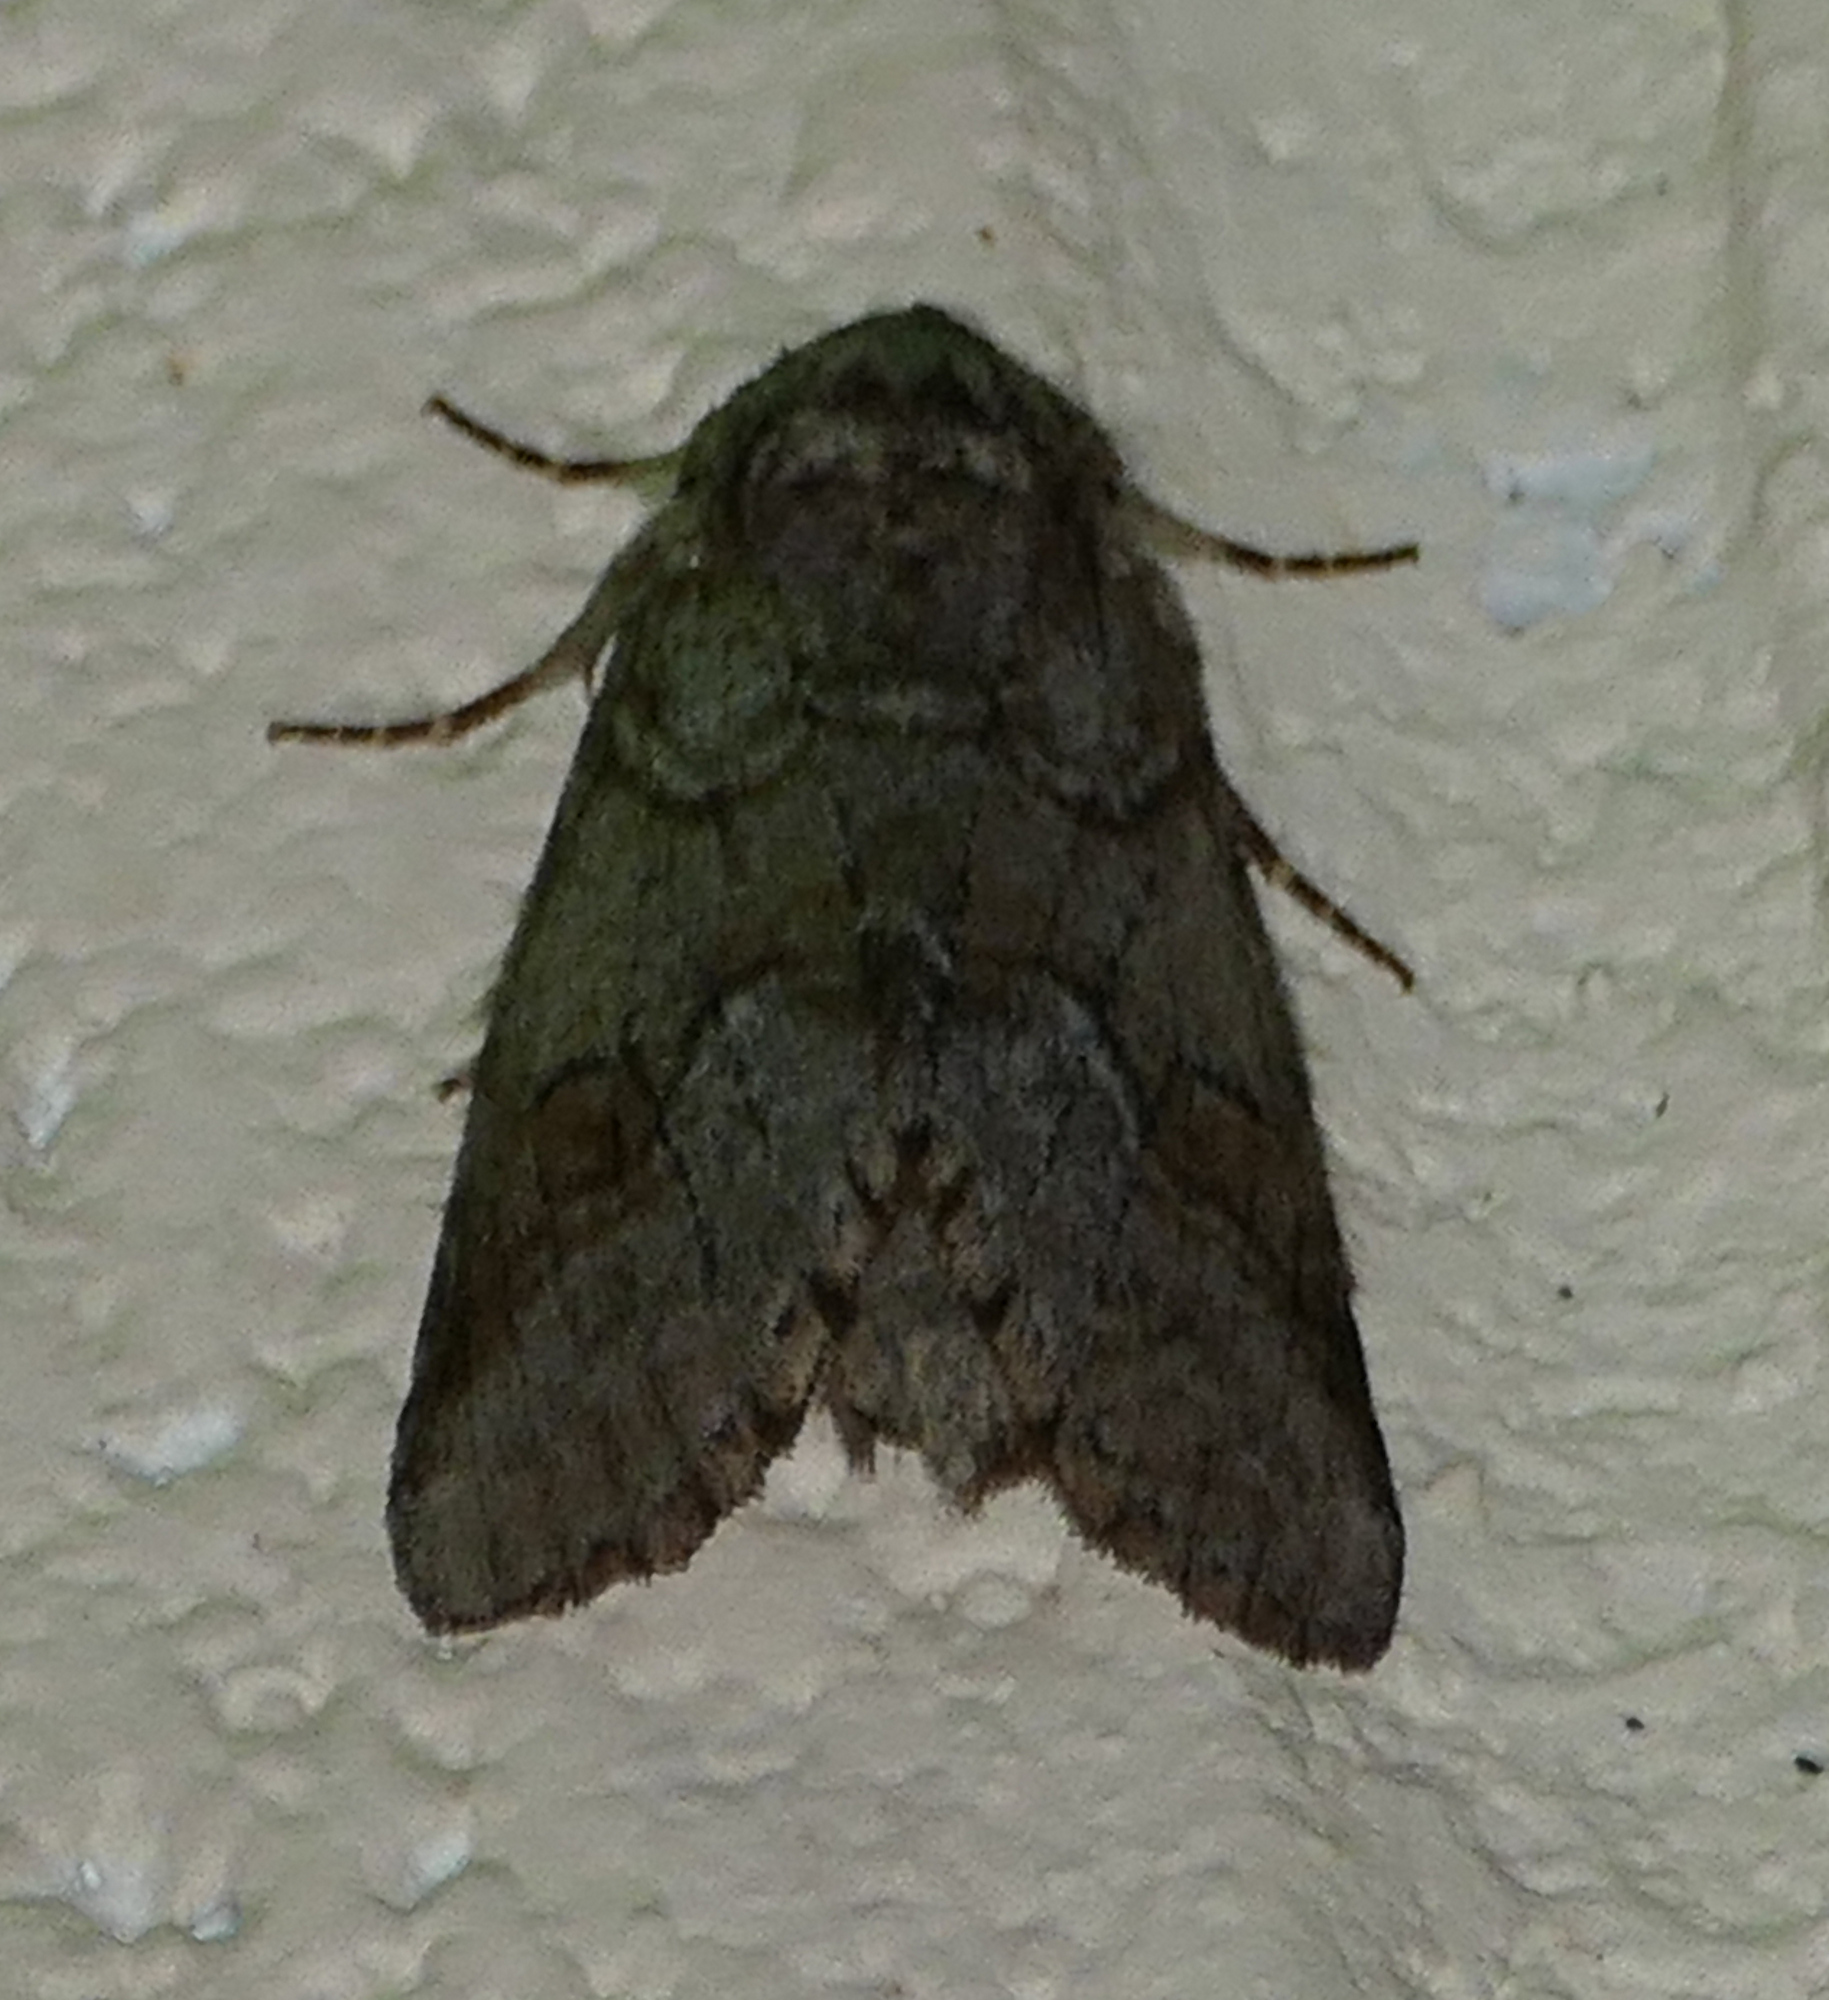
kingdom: Animalia
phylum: Arthropoda
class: Insecta
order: Lepidoptera
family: Notodontidae
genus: Lochmaeus
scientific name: Lochmaeus bilineata
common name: Double-lined prominent
